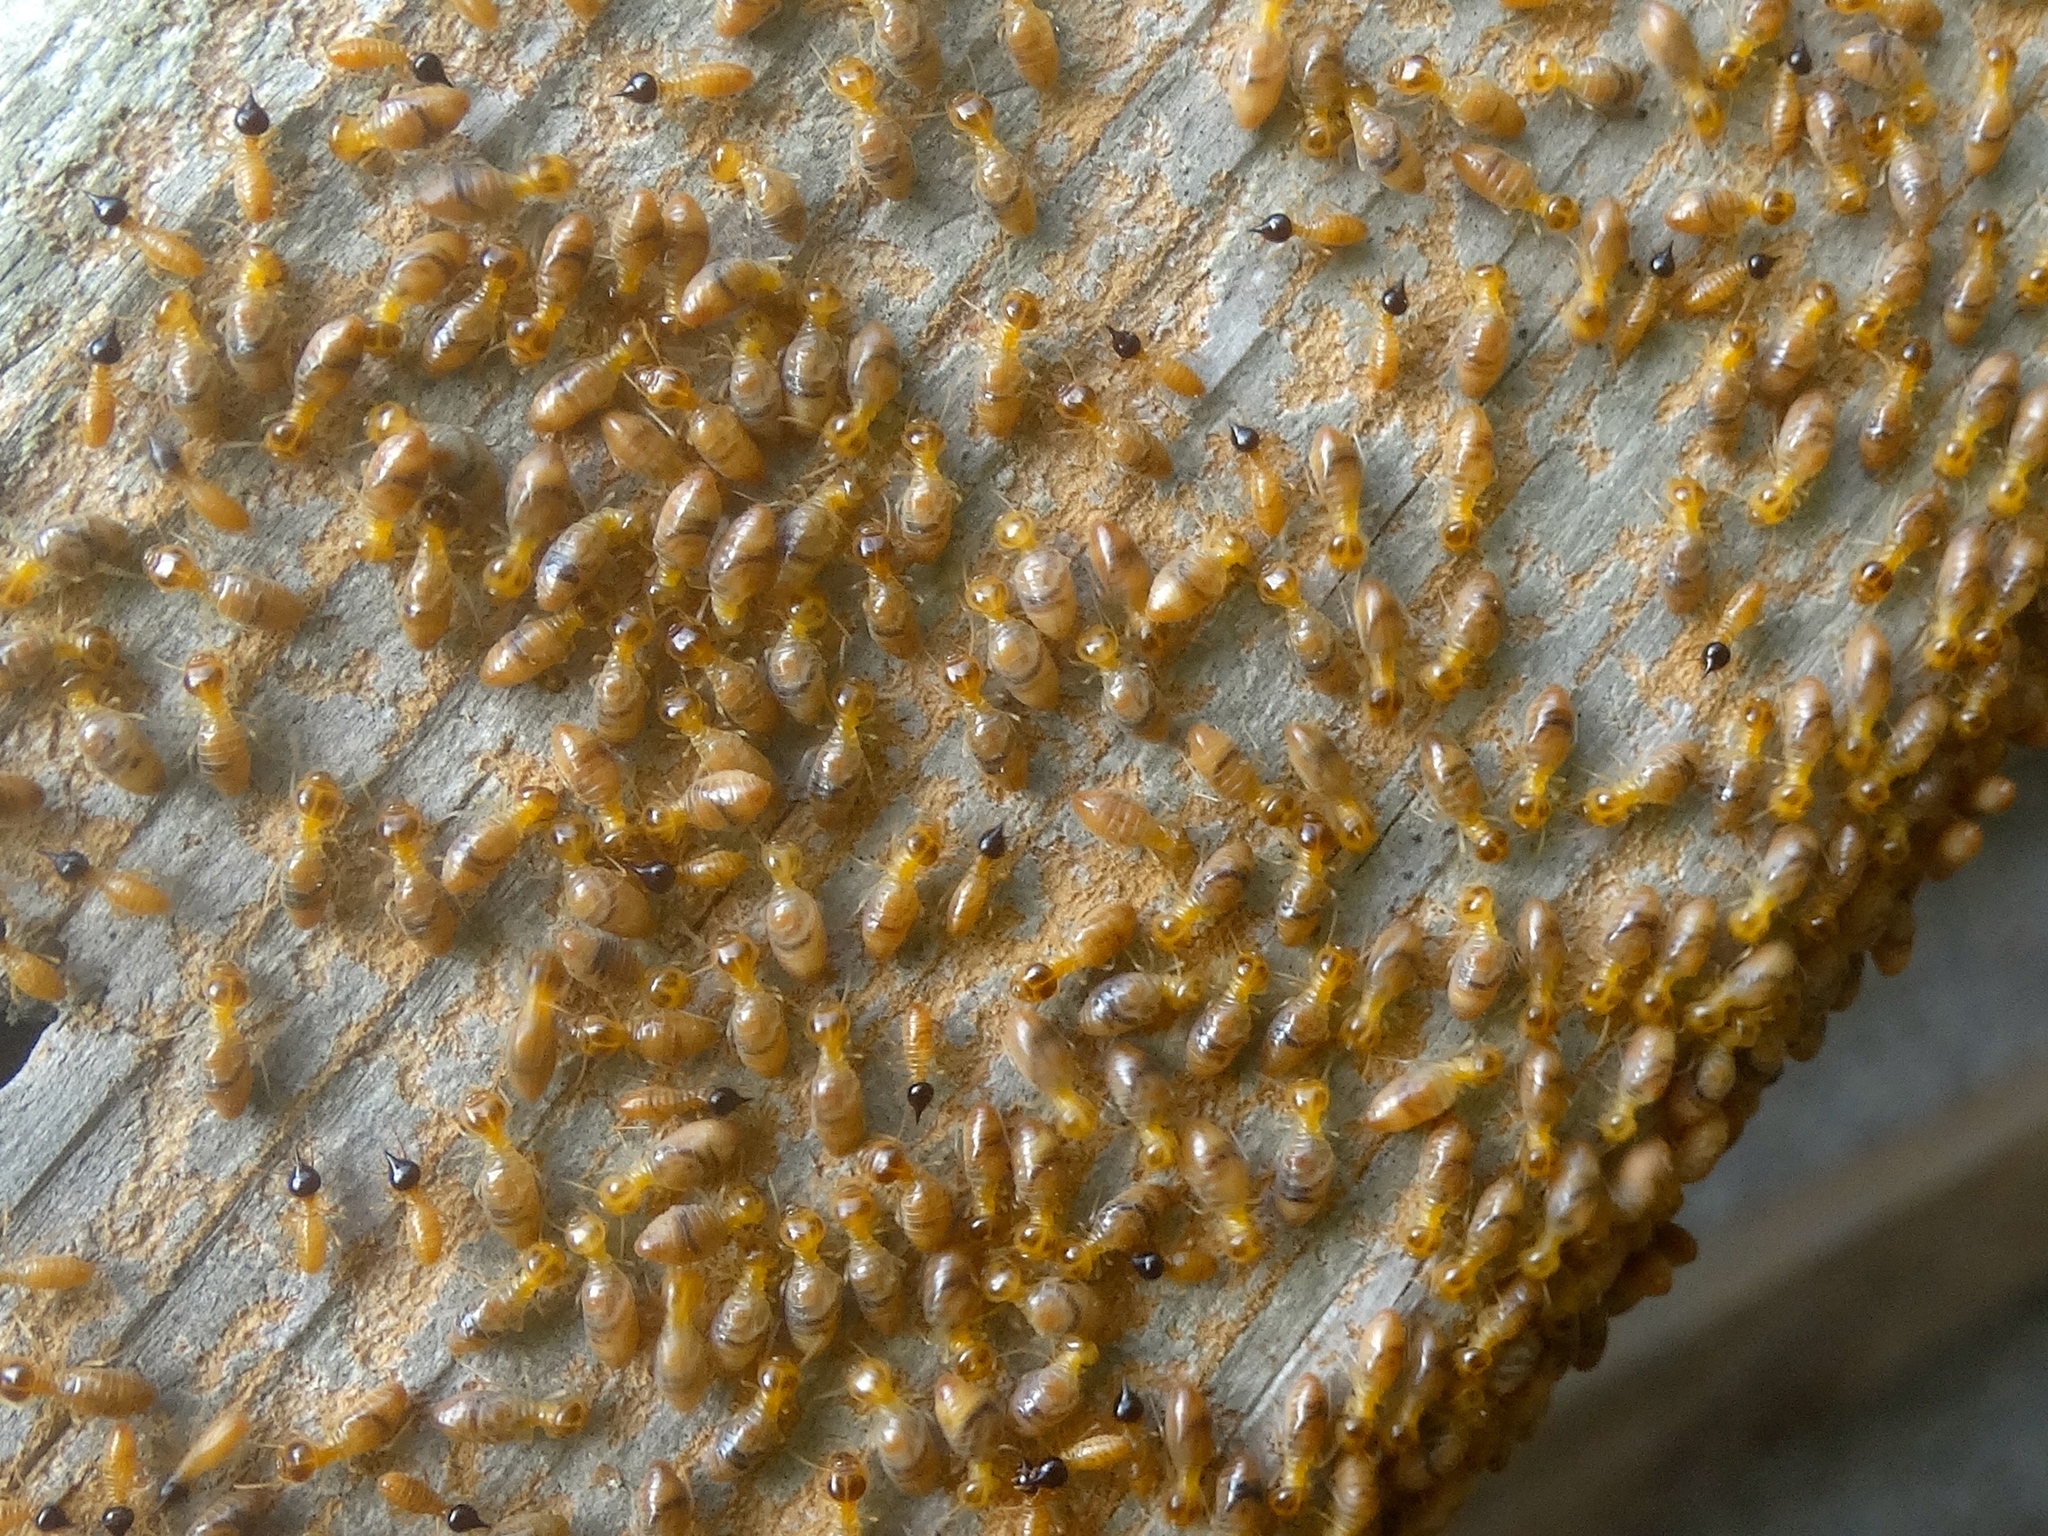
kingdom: Animalia
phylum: Arthropoda
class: Insecta
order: Blattodea
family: Termitidae
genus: Nasutitermes
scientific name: Nasutitermes
